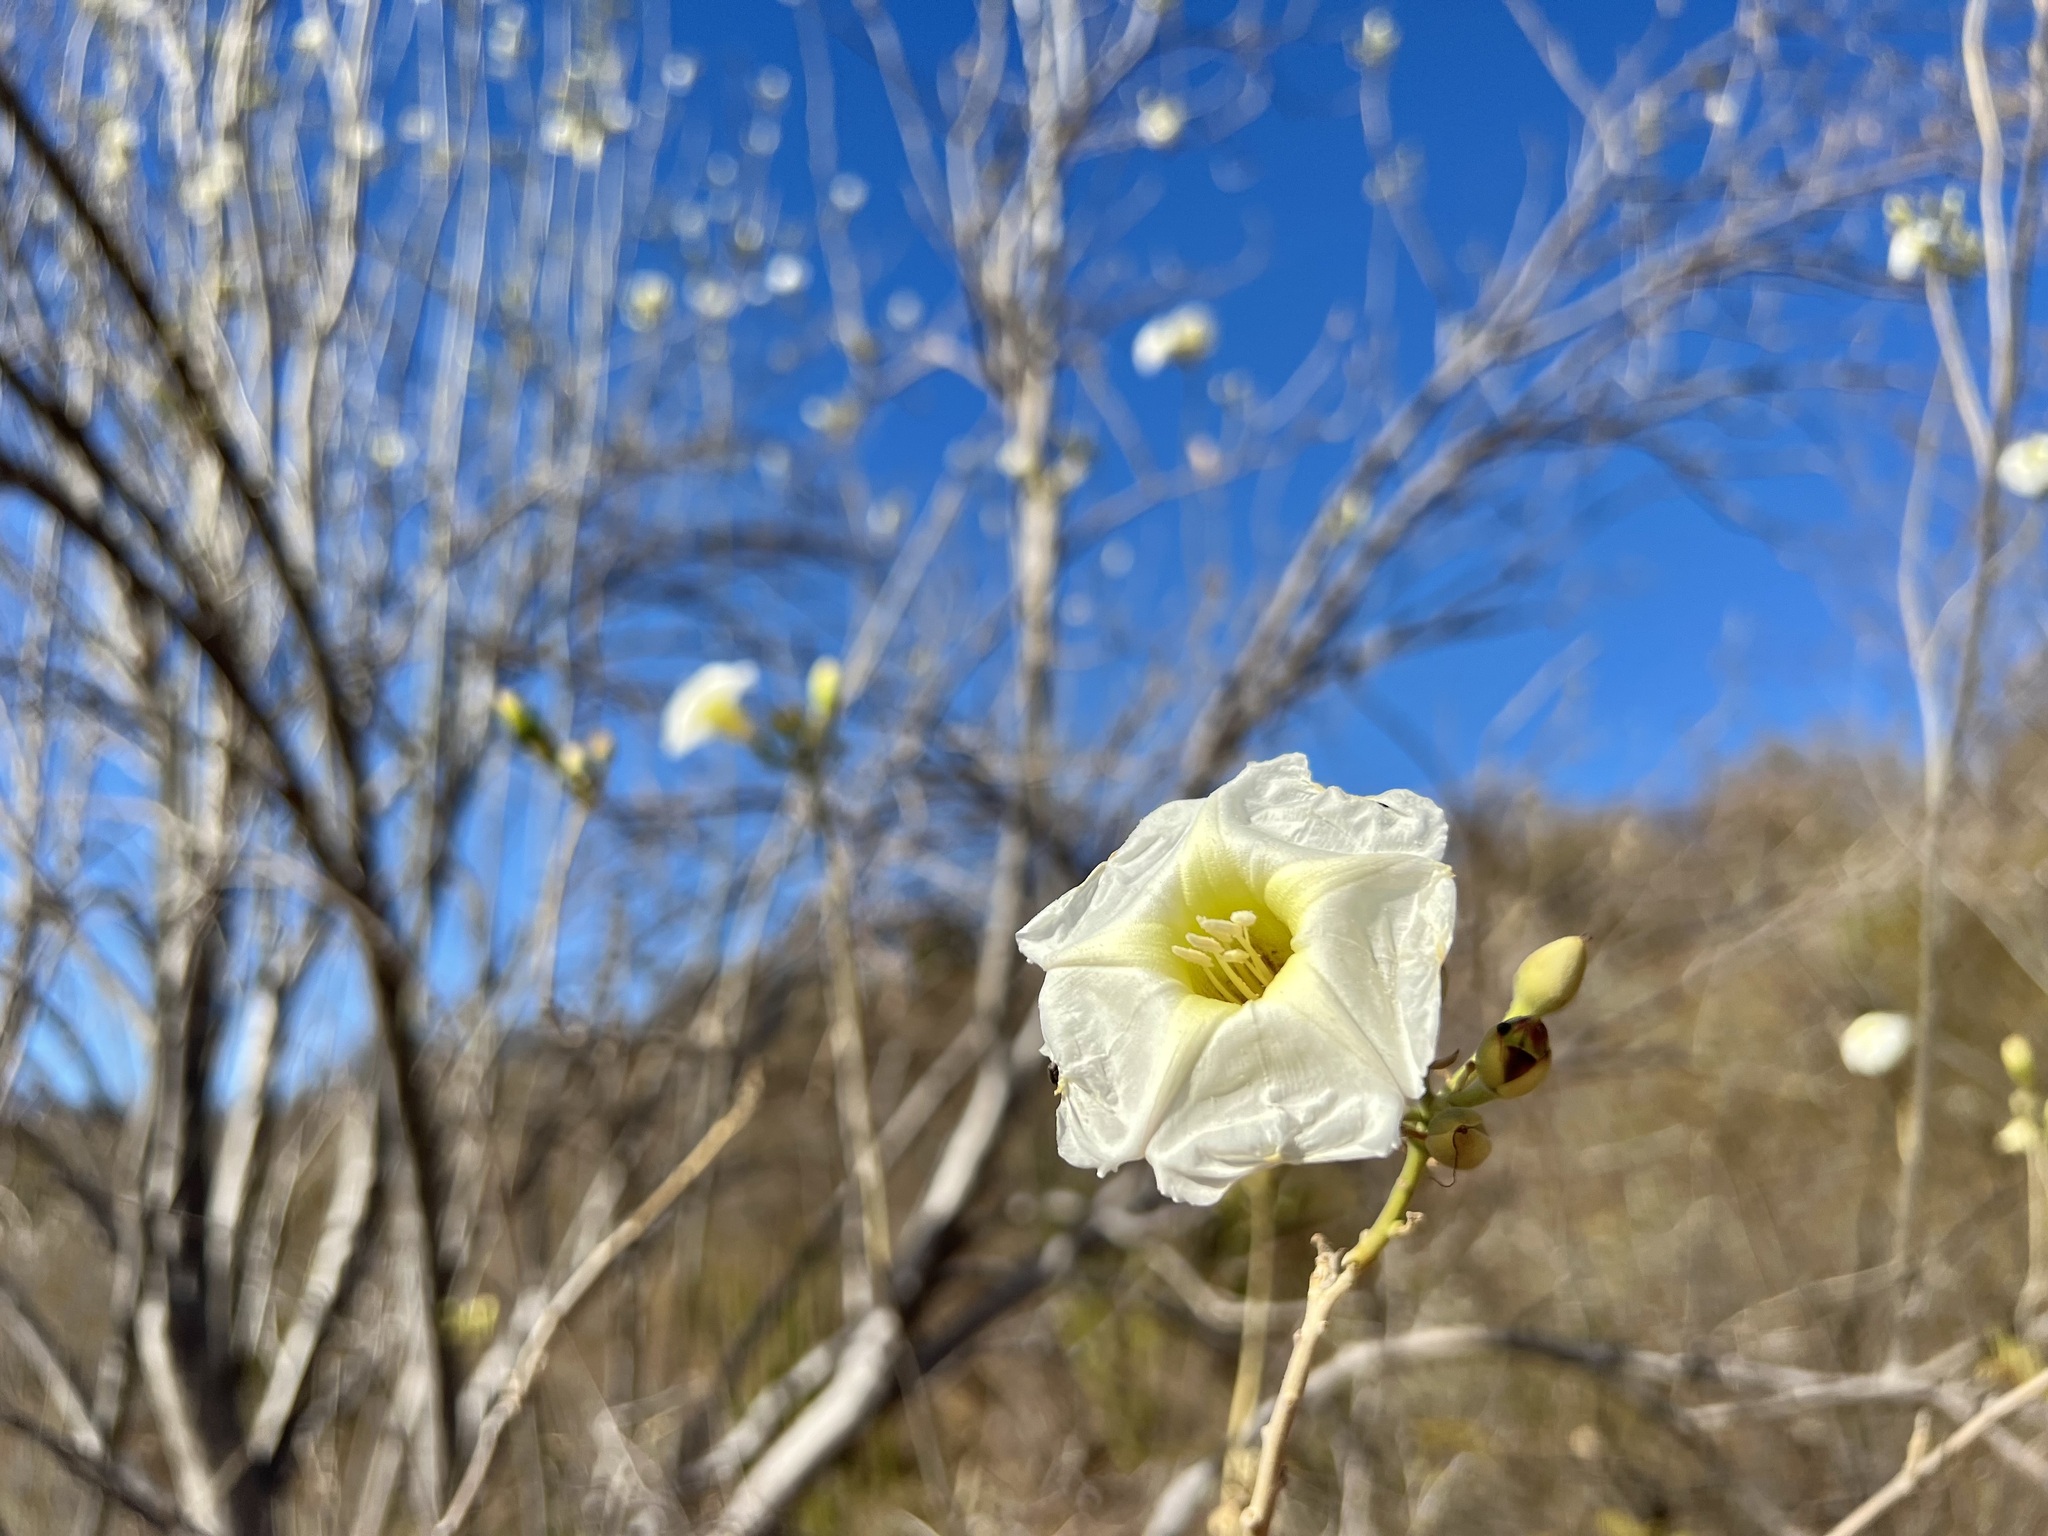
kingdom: Plantae
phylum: Tracheophyta
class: Magnoliopsida
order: Solanales
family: Convolvulaceae
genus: Ipomoea
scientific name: Ipomoea arborescens
